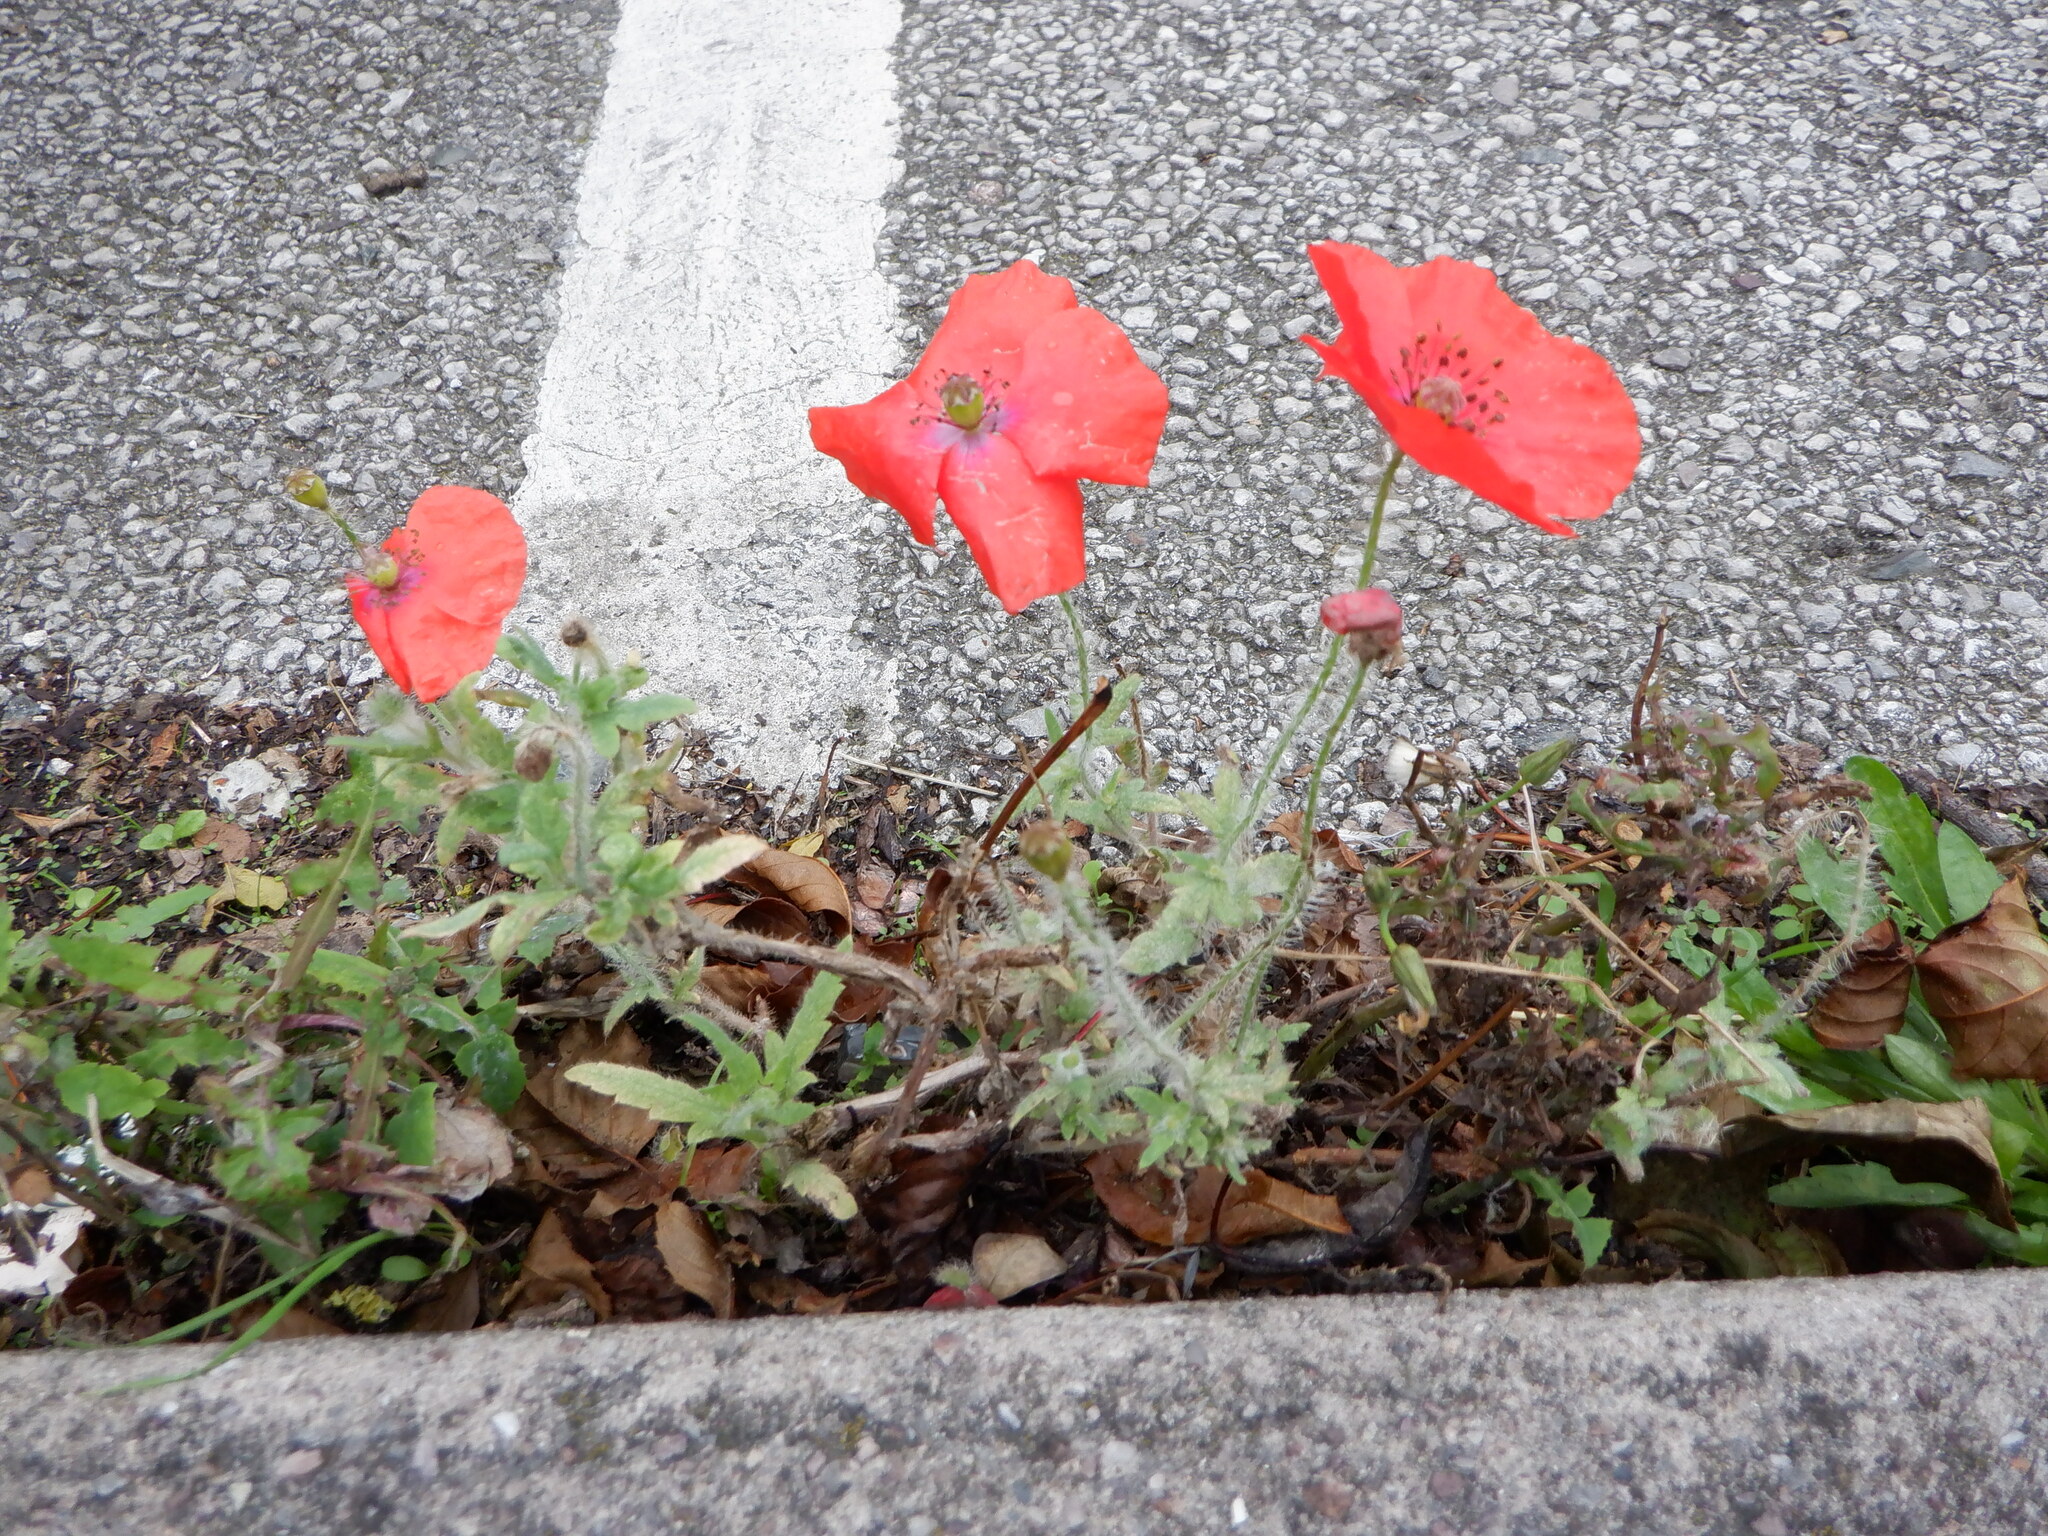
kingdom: Plantae
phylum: Tracheophyta
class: Magnoliopsida
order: Ranunculales
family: Papaveraceae
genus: Papaver
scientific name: Papaver rhoeas
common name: Corn poppy
